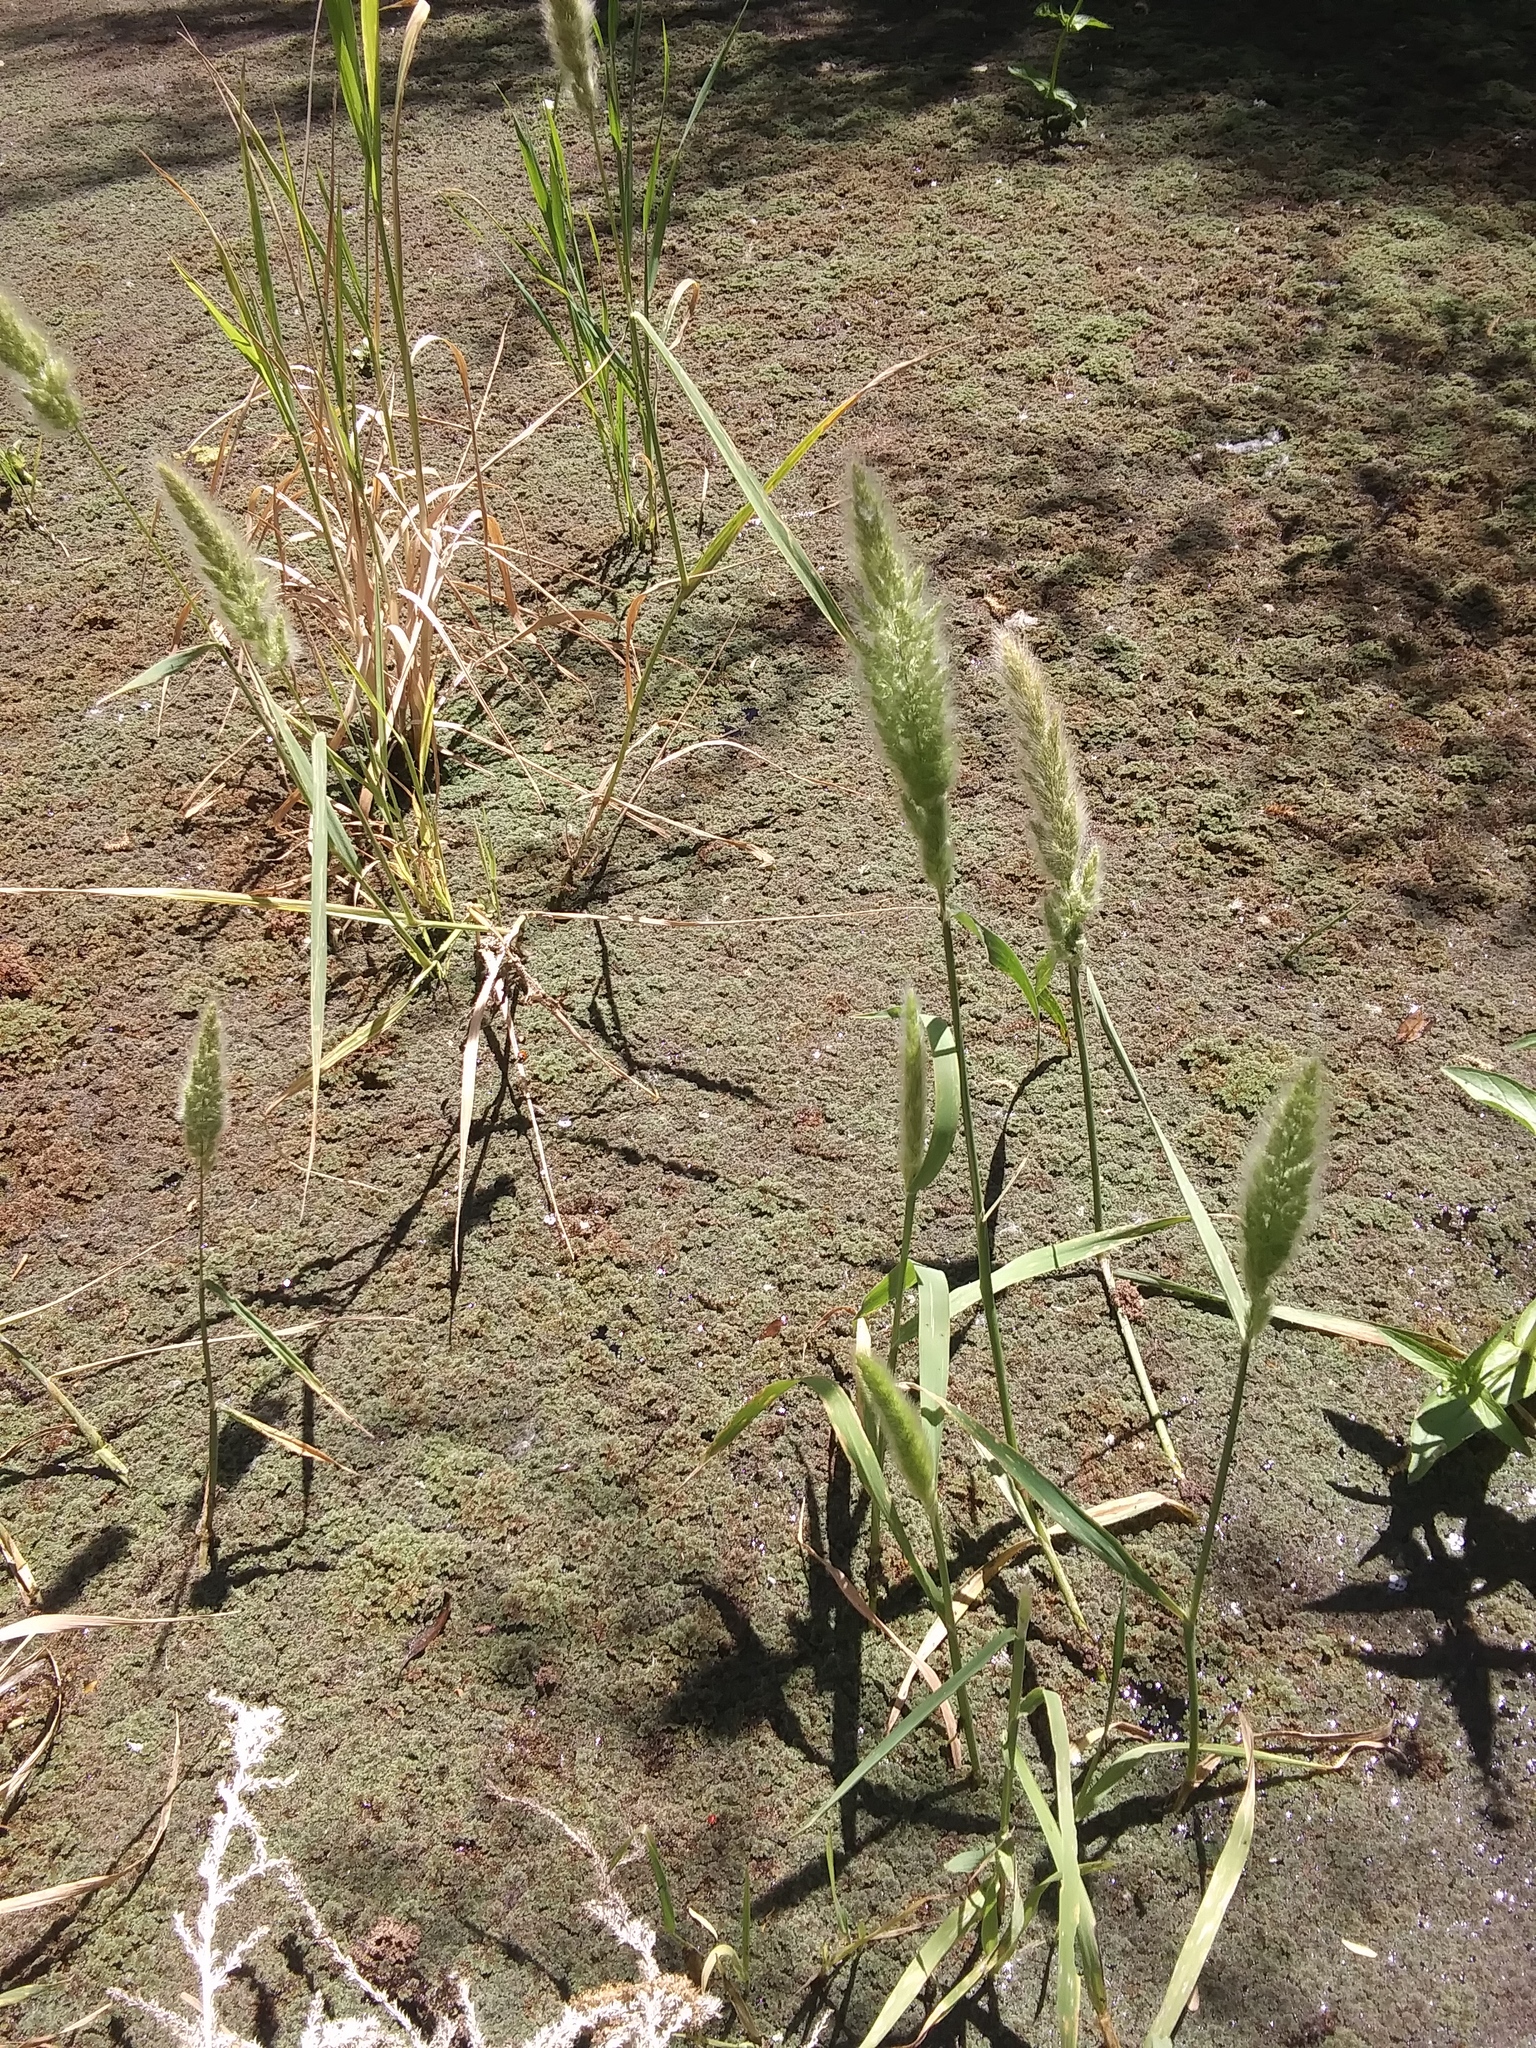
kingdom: Plantae
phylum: Tracheophyta
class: Liliopsida
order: Poales
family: Poaceae
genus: Polypogon
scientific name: Polypogon monspeliensis
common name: Annual rabbitsfoot grass
